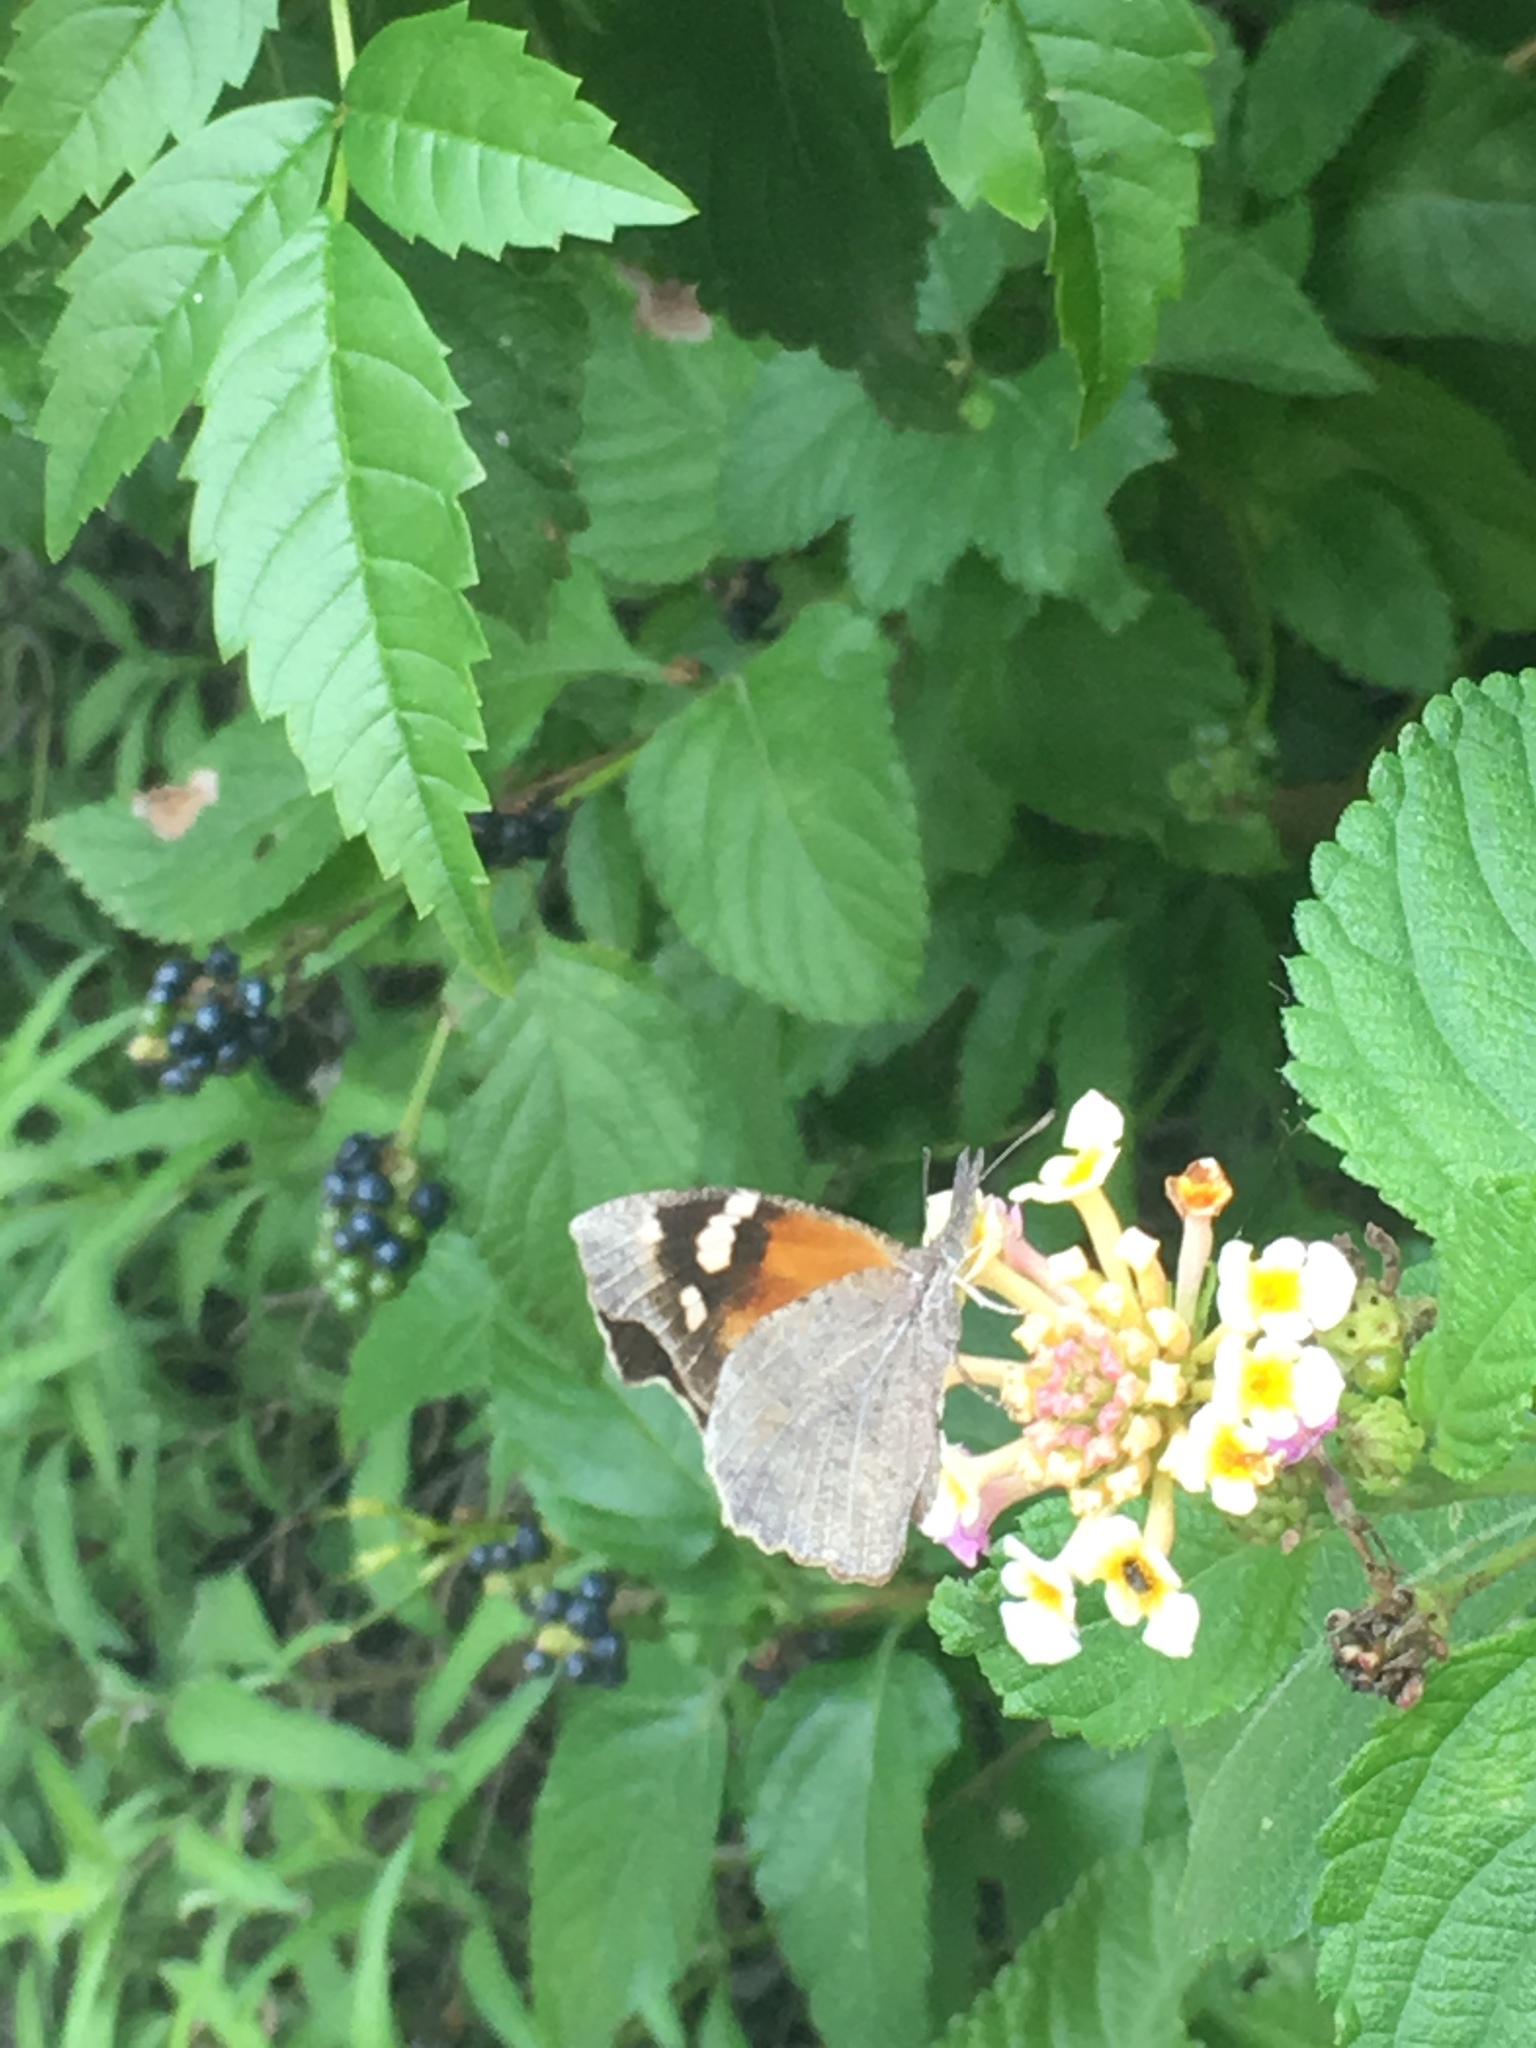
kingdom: Animalia
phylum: Arthropoda
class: Insecta
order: Lepidoptera
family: Nymphalidae
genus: Libytheana
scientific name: Libytheana carinenta
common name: American snout
